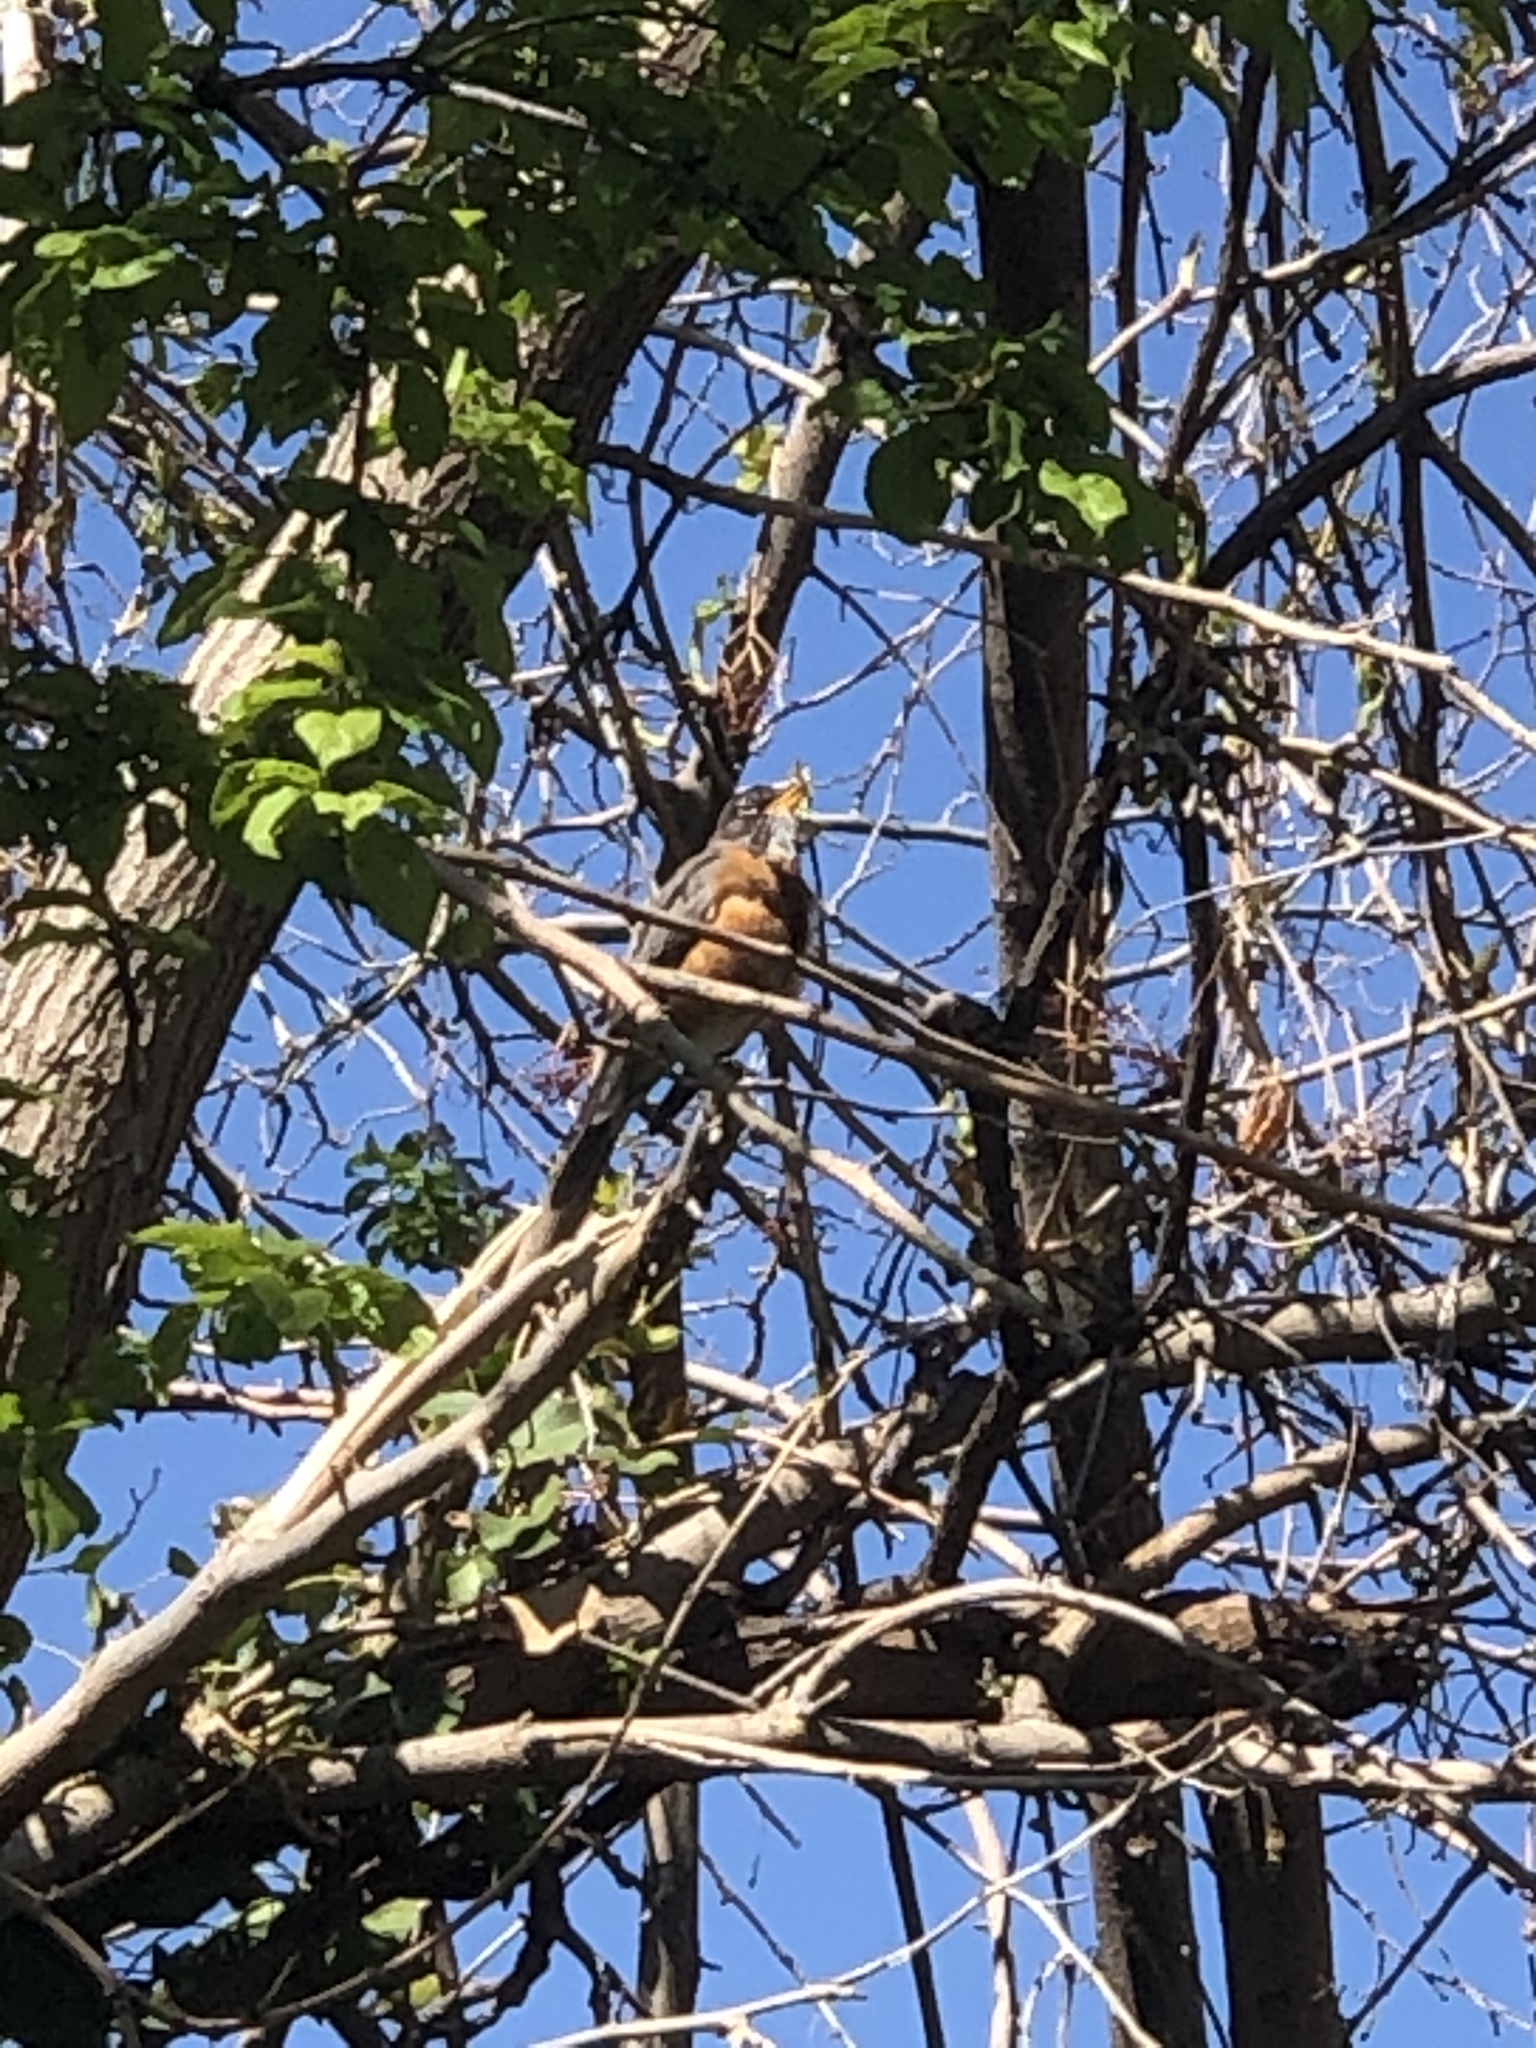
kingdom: Animalia
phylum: Chordata
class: Aves
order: Passeriformes
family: Turdidae
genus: Turdus
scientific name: Turdus migratorius
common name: American robin
